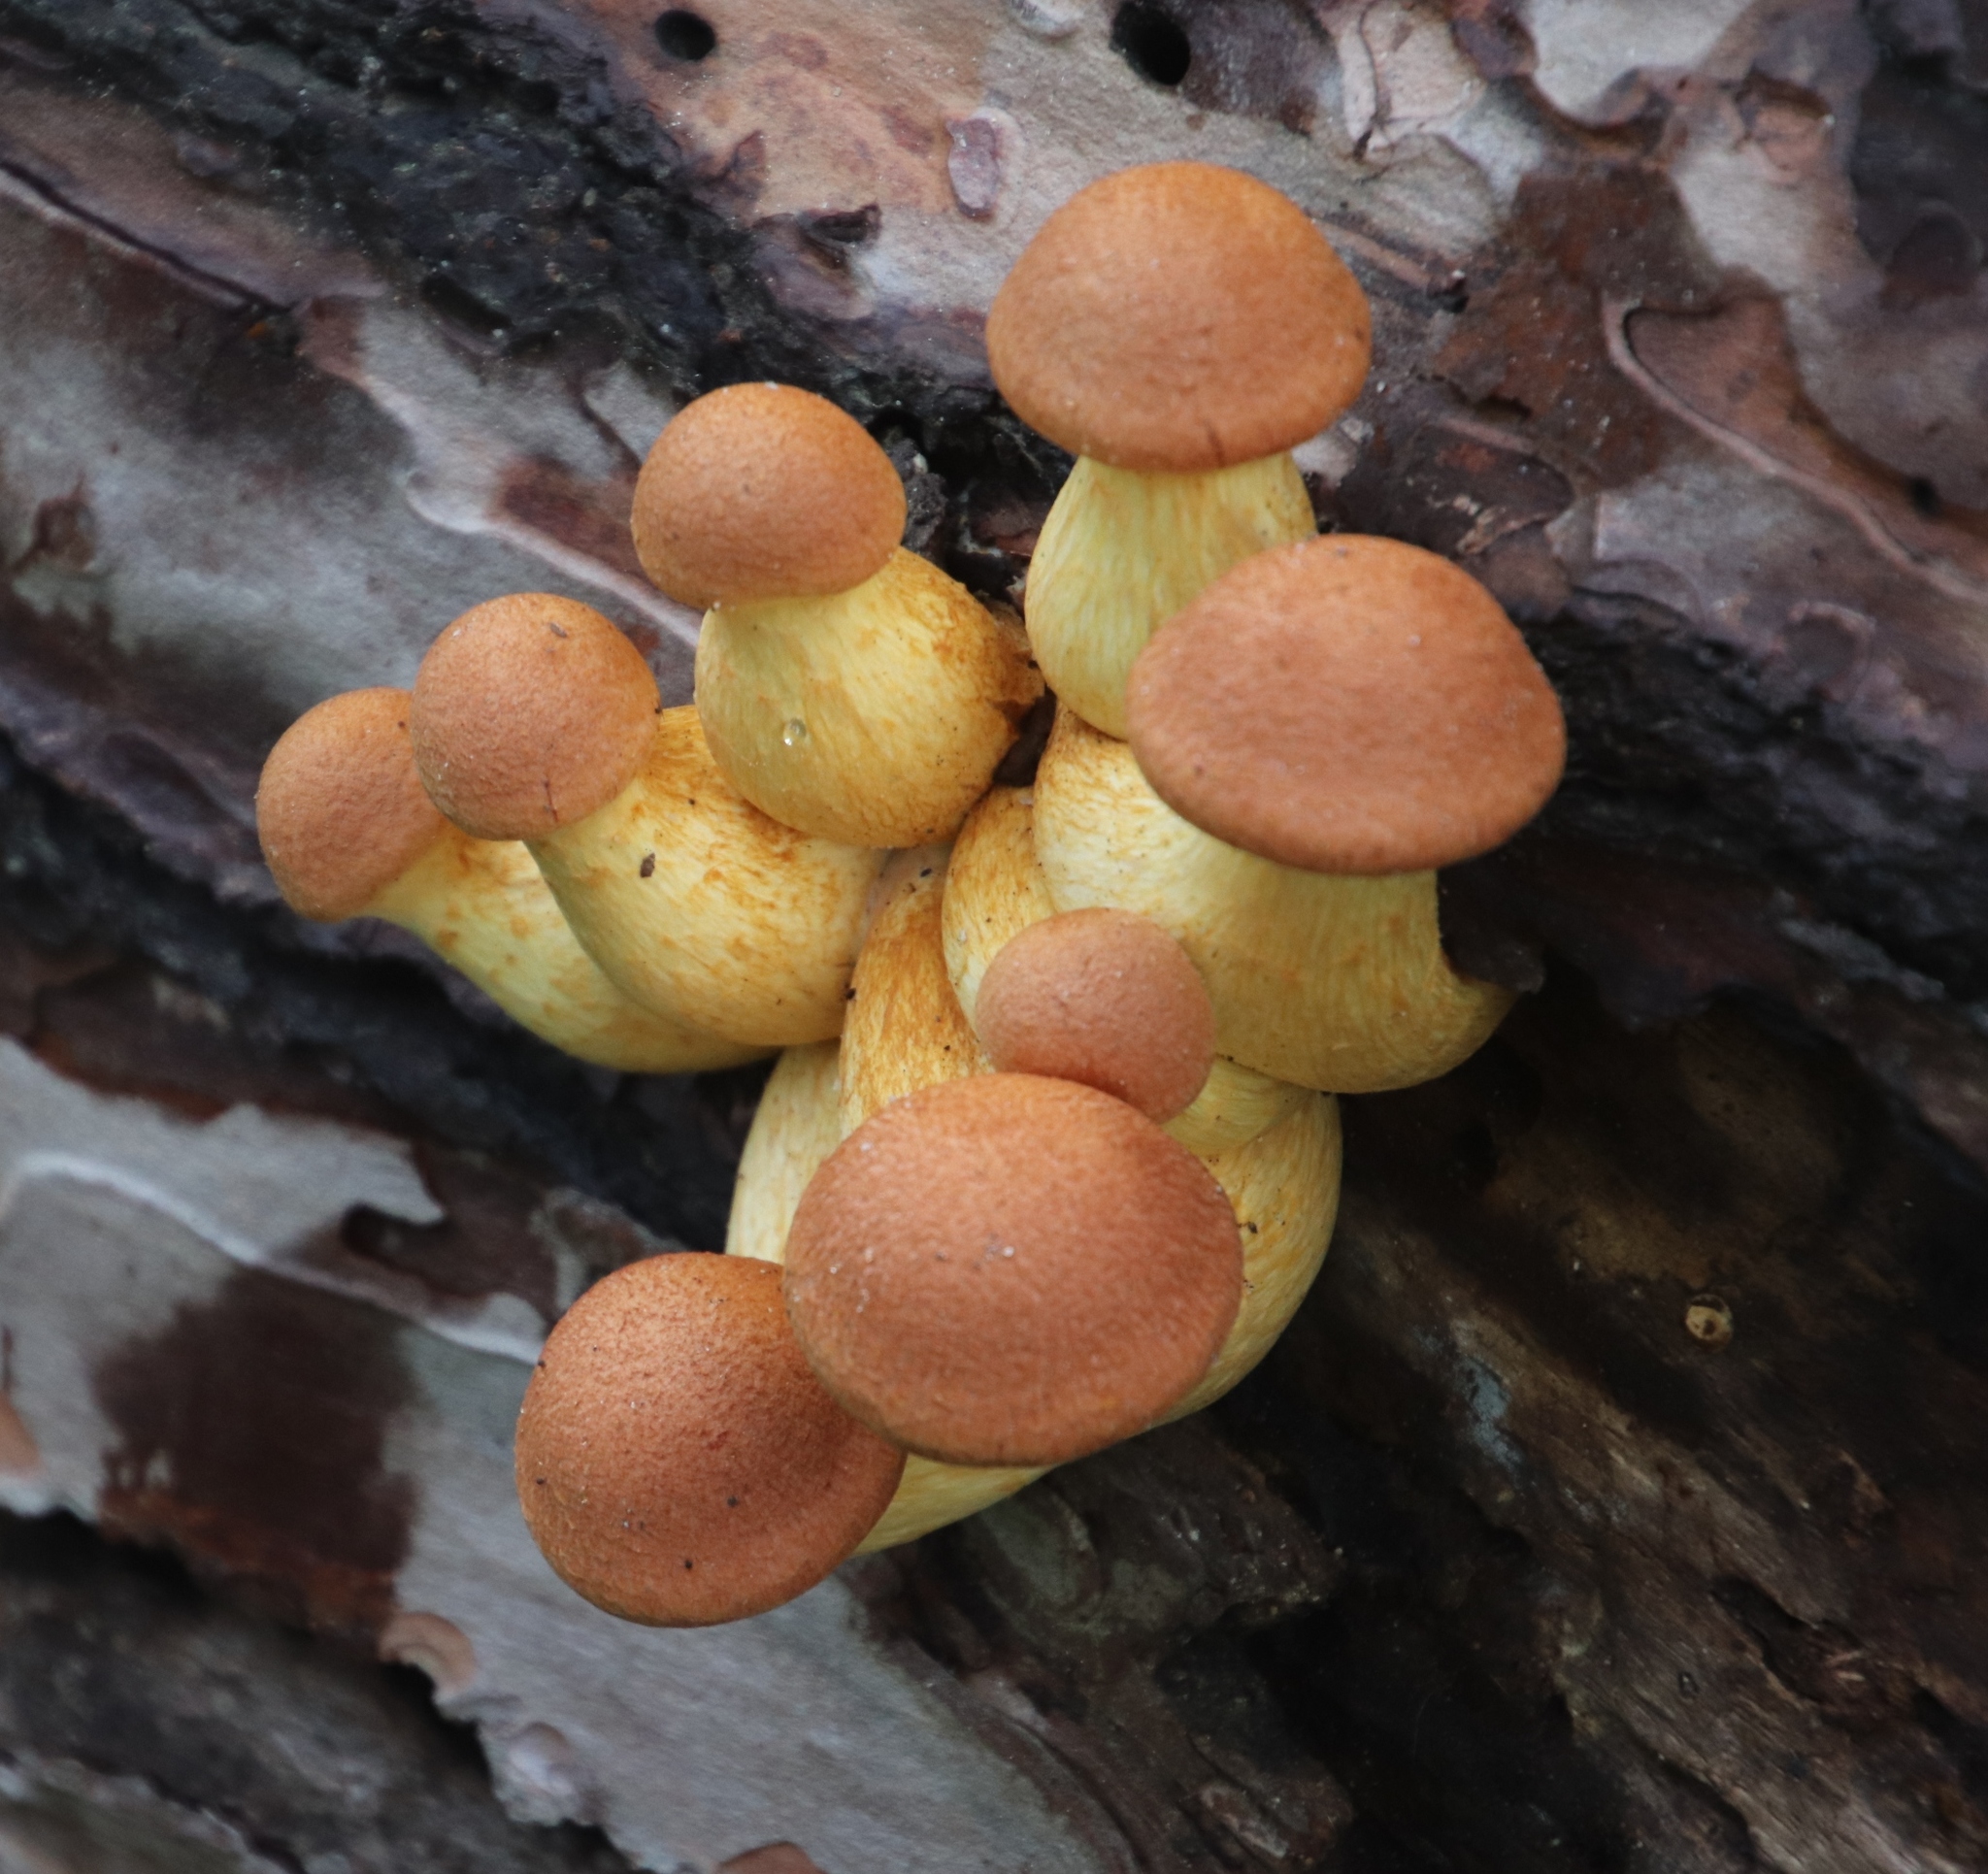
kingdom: Fungi
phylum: Basidiomycota
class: Agaricomycetes
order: Agaricales
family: Hymenogastraceae
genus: Gymnopilus
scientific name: Gymnopilus junonius
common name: Spectacular rustgill
